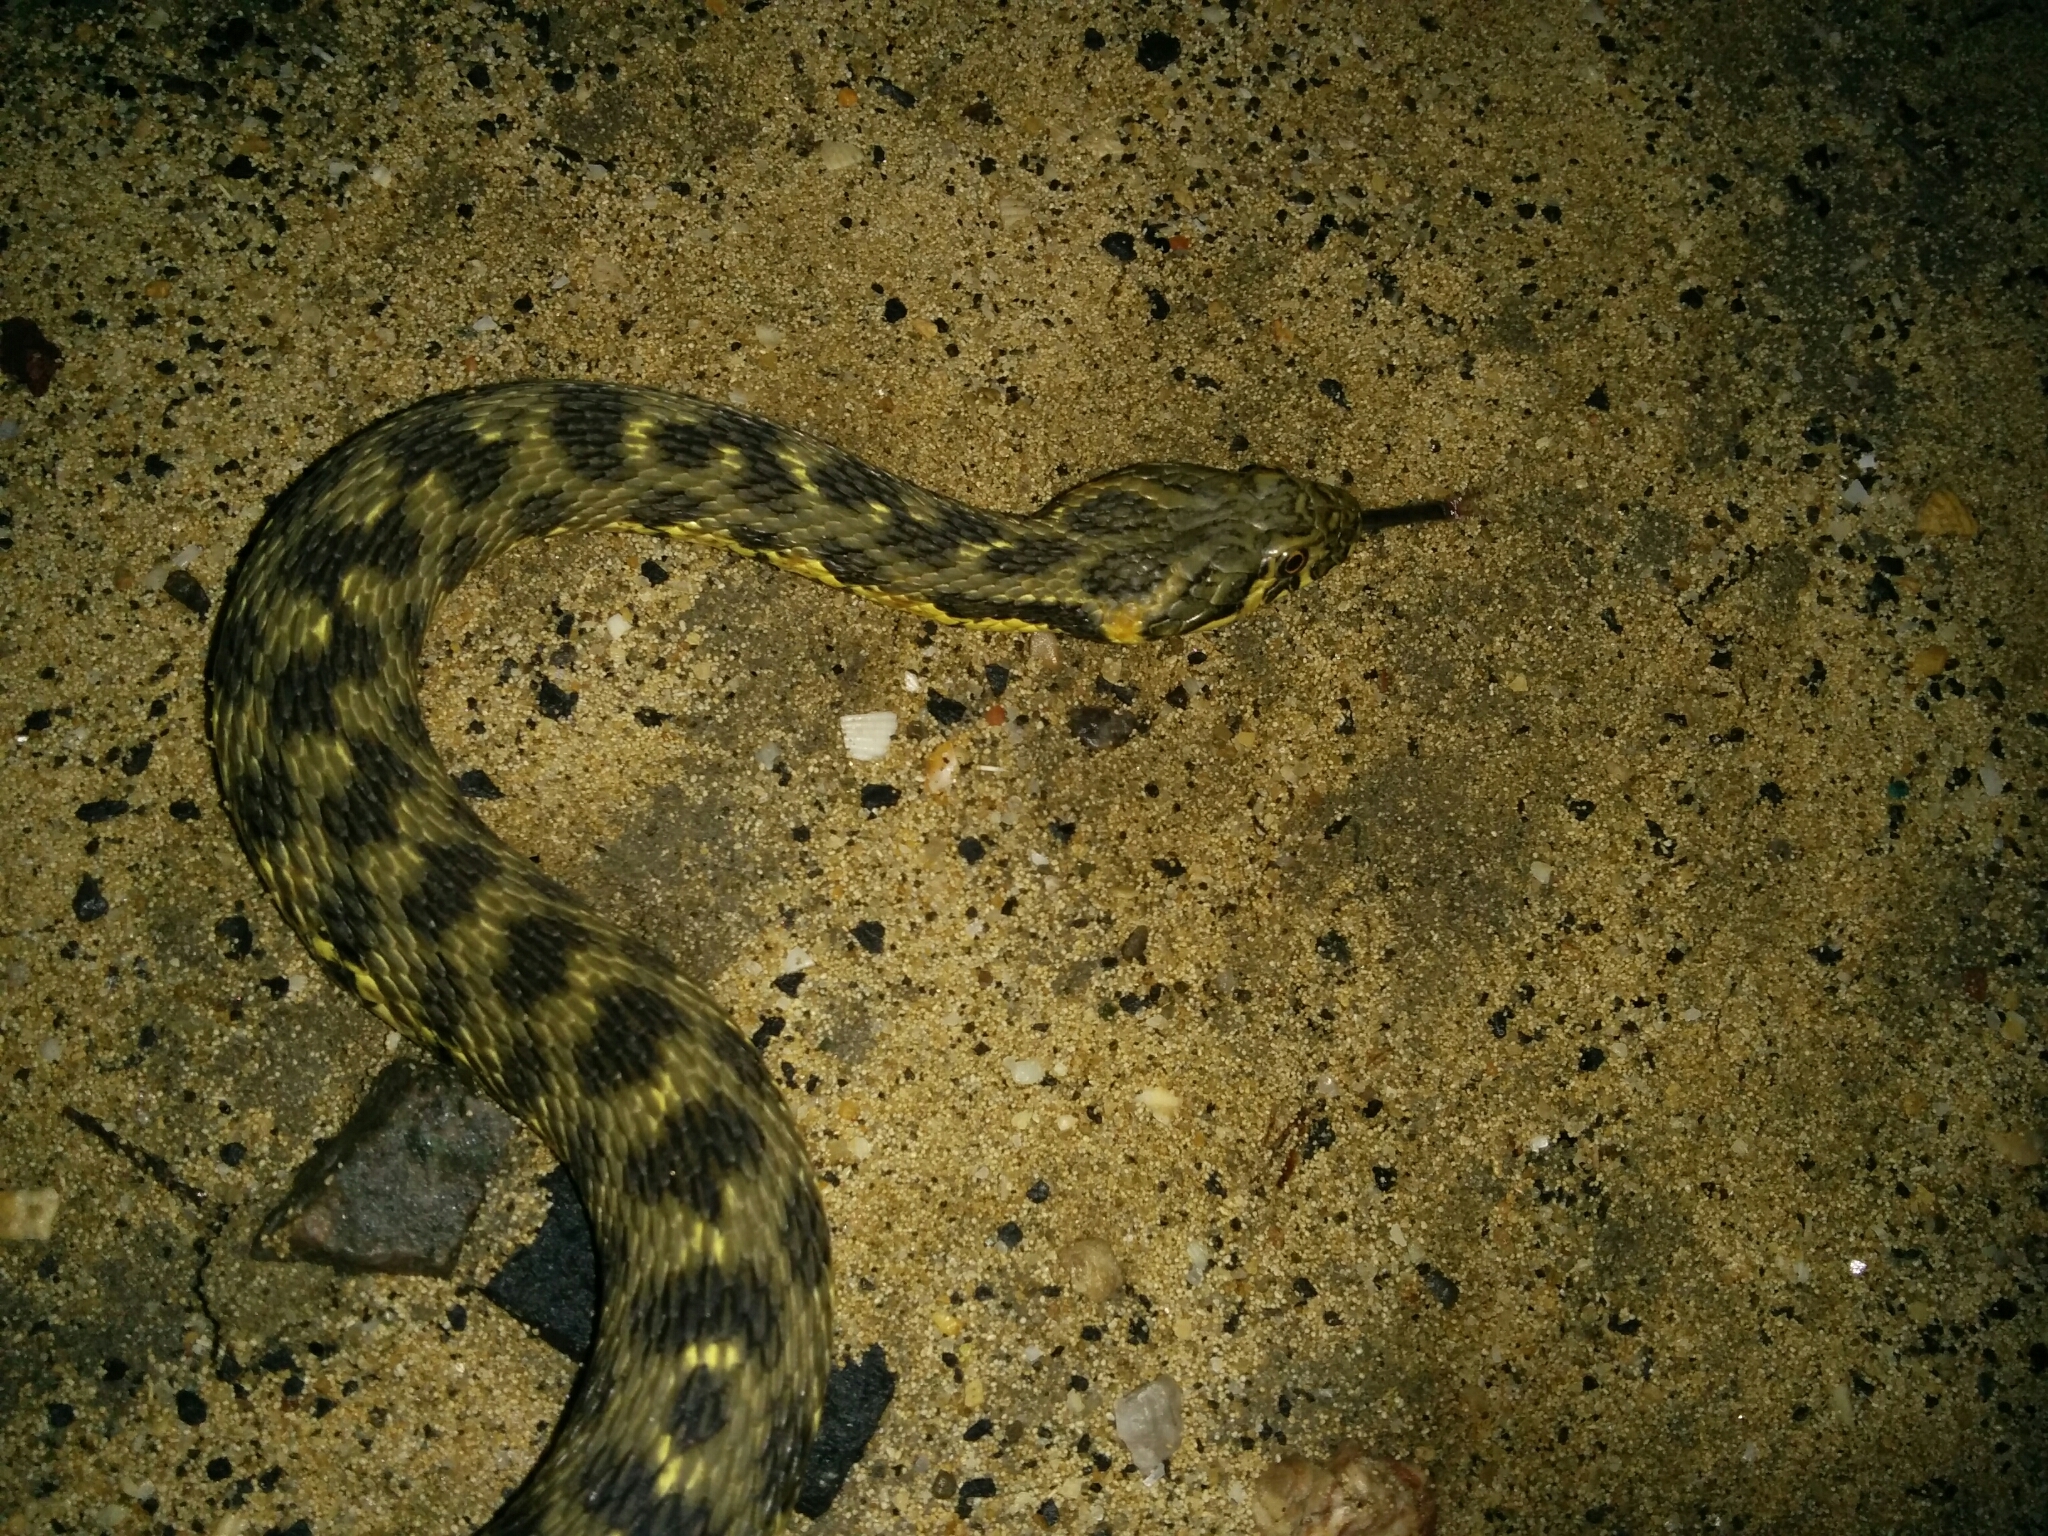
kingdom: Animalia
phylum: Chordata
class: Squamata
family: Colubridae
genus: Natrix
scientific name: Natrix maura
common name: Viperine water snake
